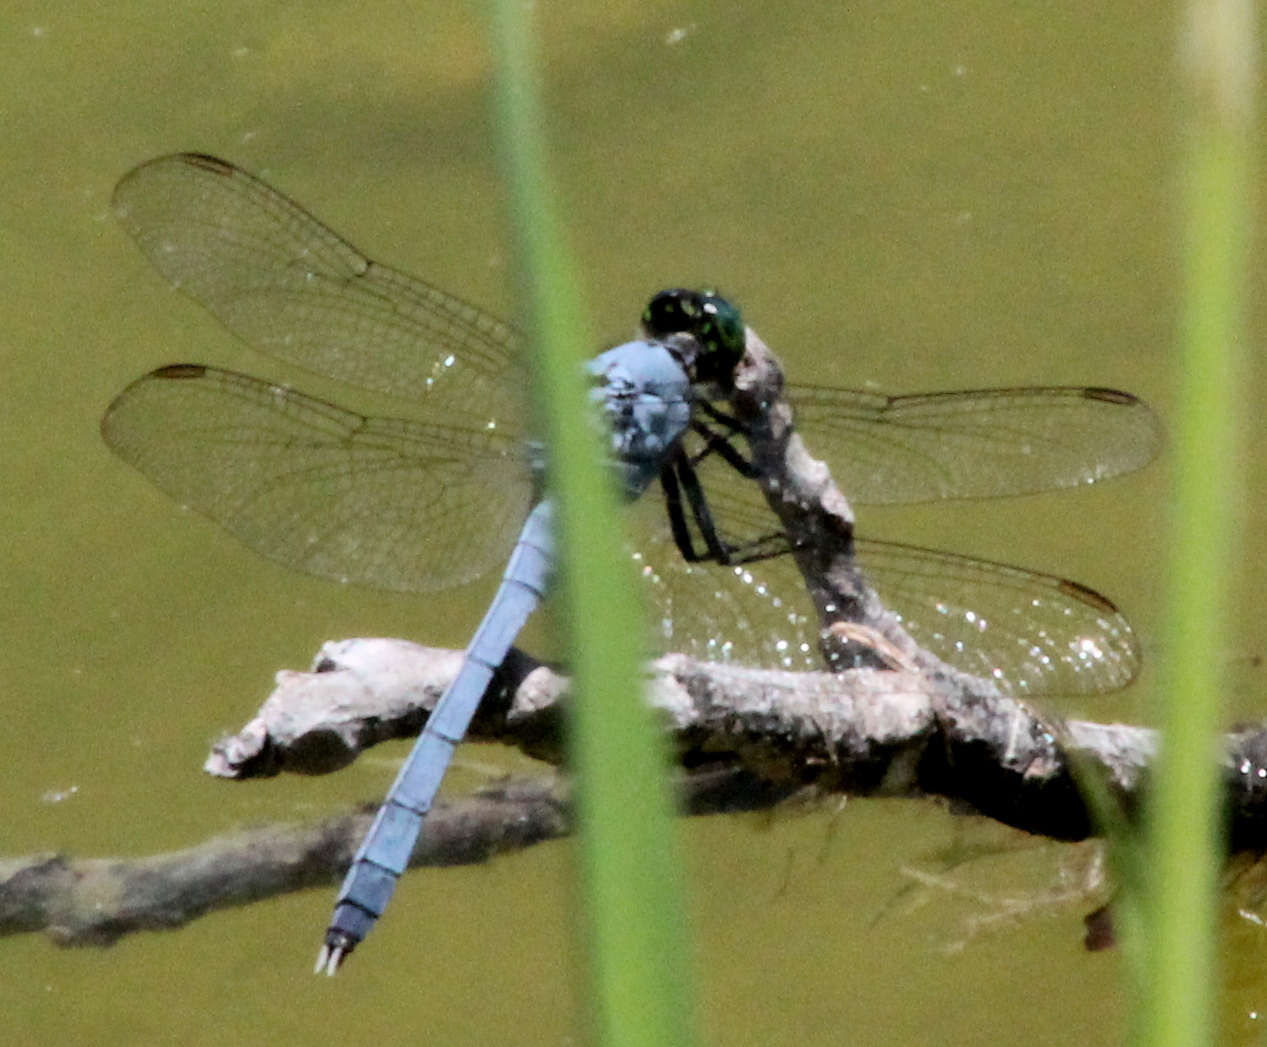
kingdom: Animalia
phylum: Arthropoda
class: Insecta
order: Odonata
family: Libellulidae
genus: Erythemis
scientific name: Erythemis simplicicollis
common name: Eastern pondhawk
